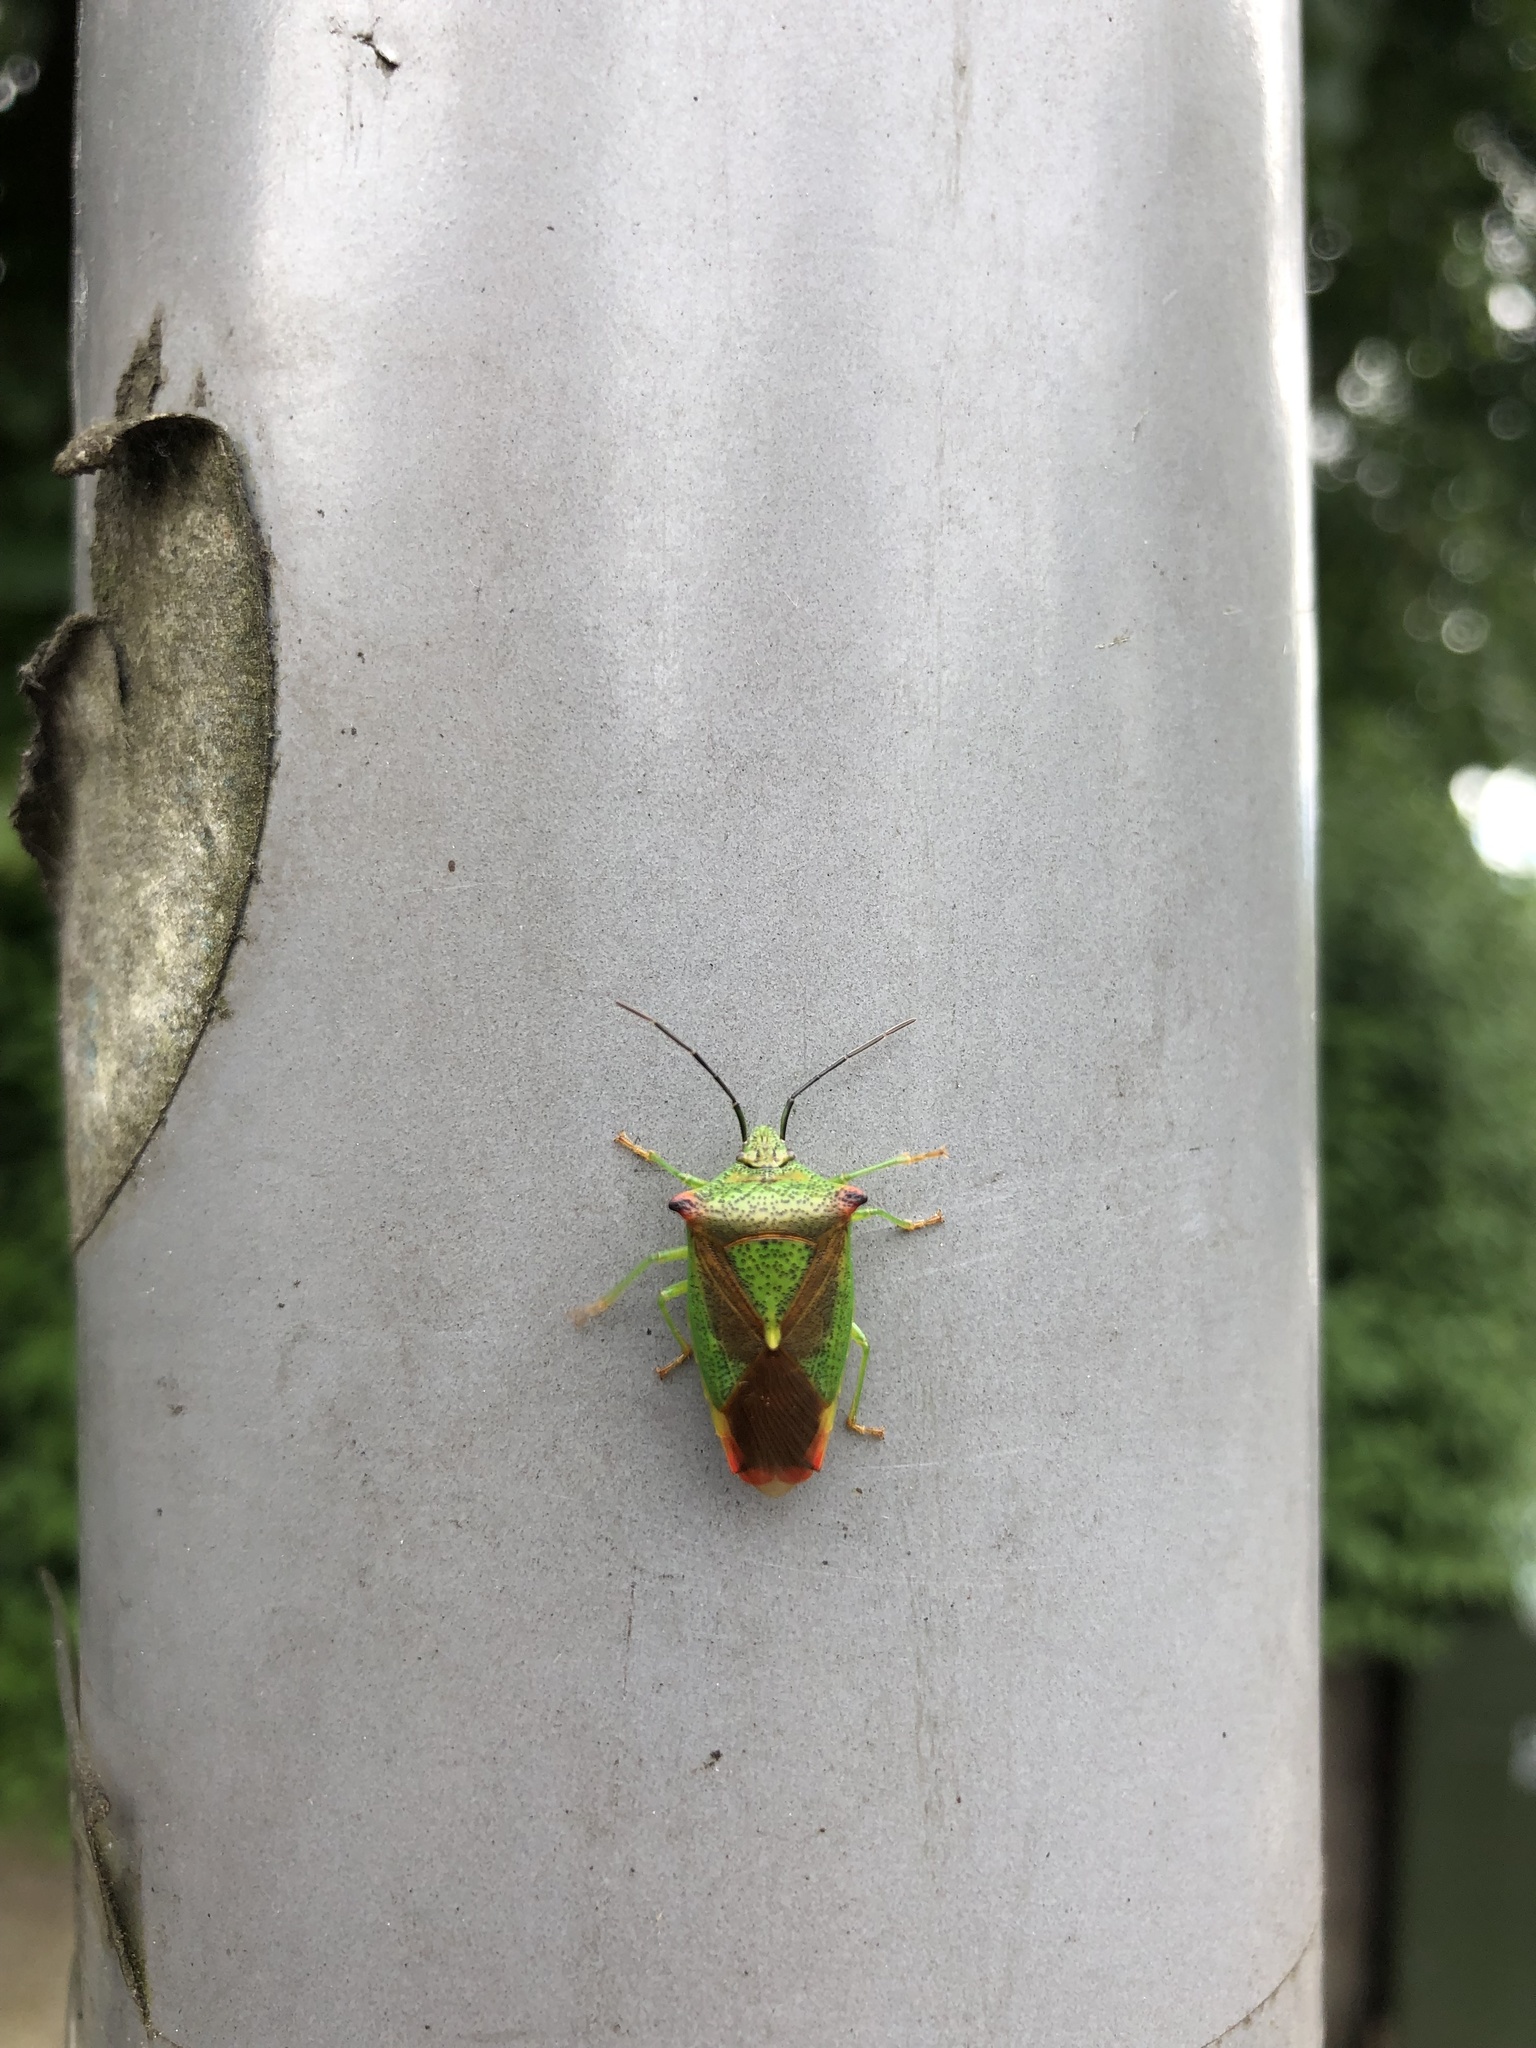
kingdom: Animalia
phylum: Arthropoda
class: Insecta
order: Hemiptera
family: Acanthosomatidae
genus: Acanthosoma
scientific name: Acanthosoma haemorrhoidale
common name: Hawthorn shieldbug
